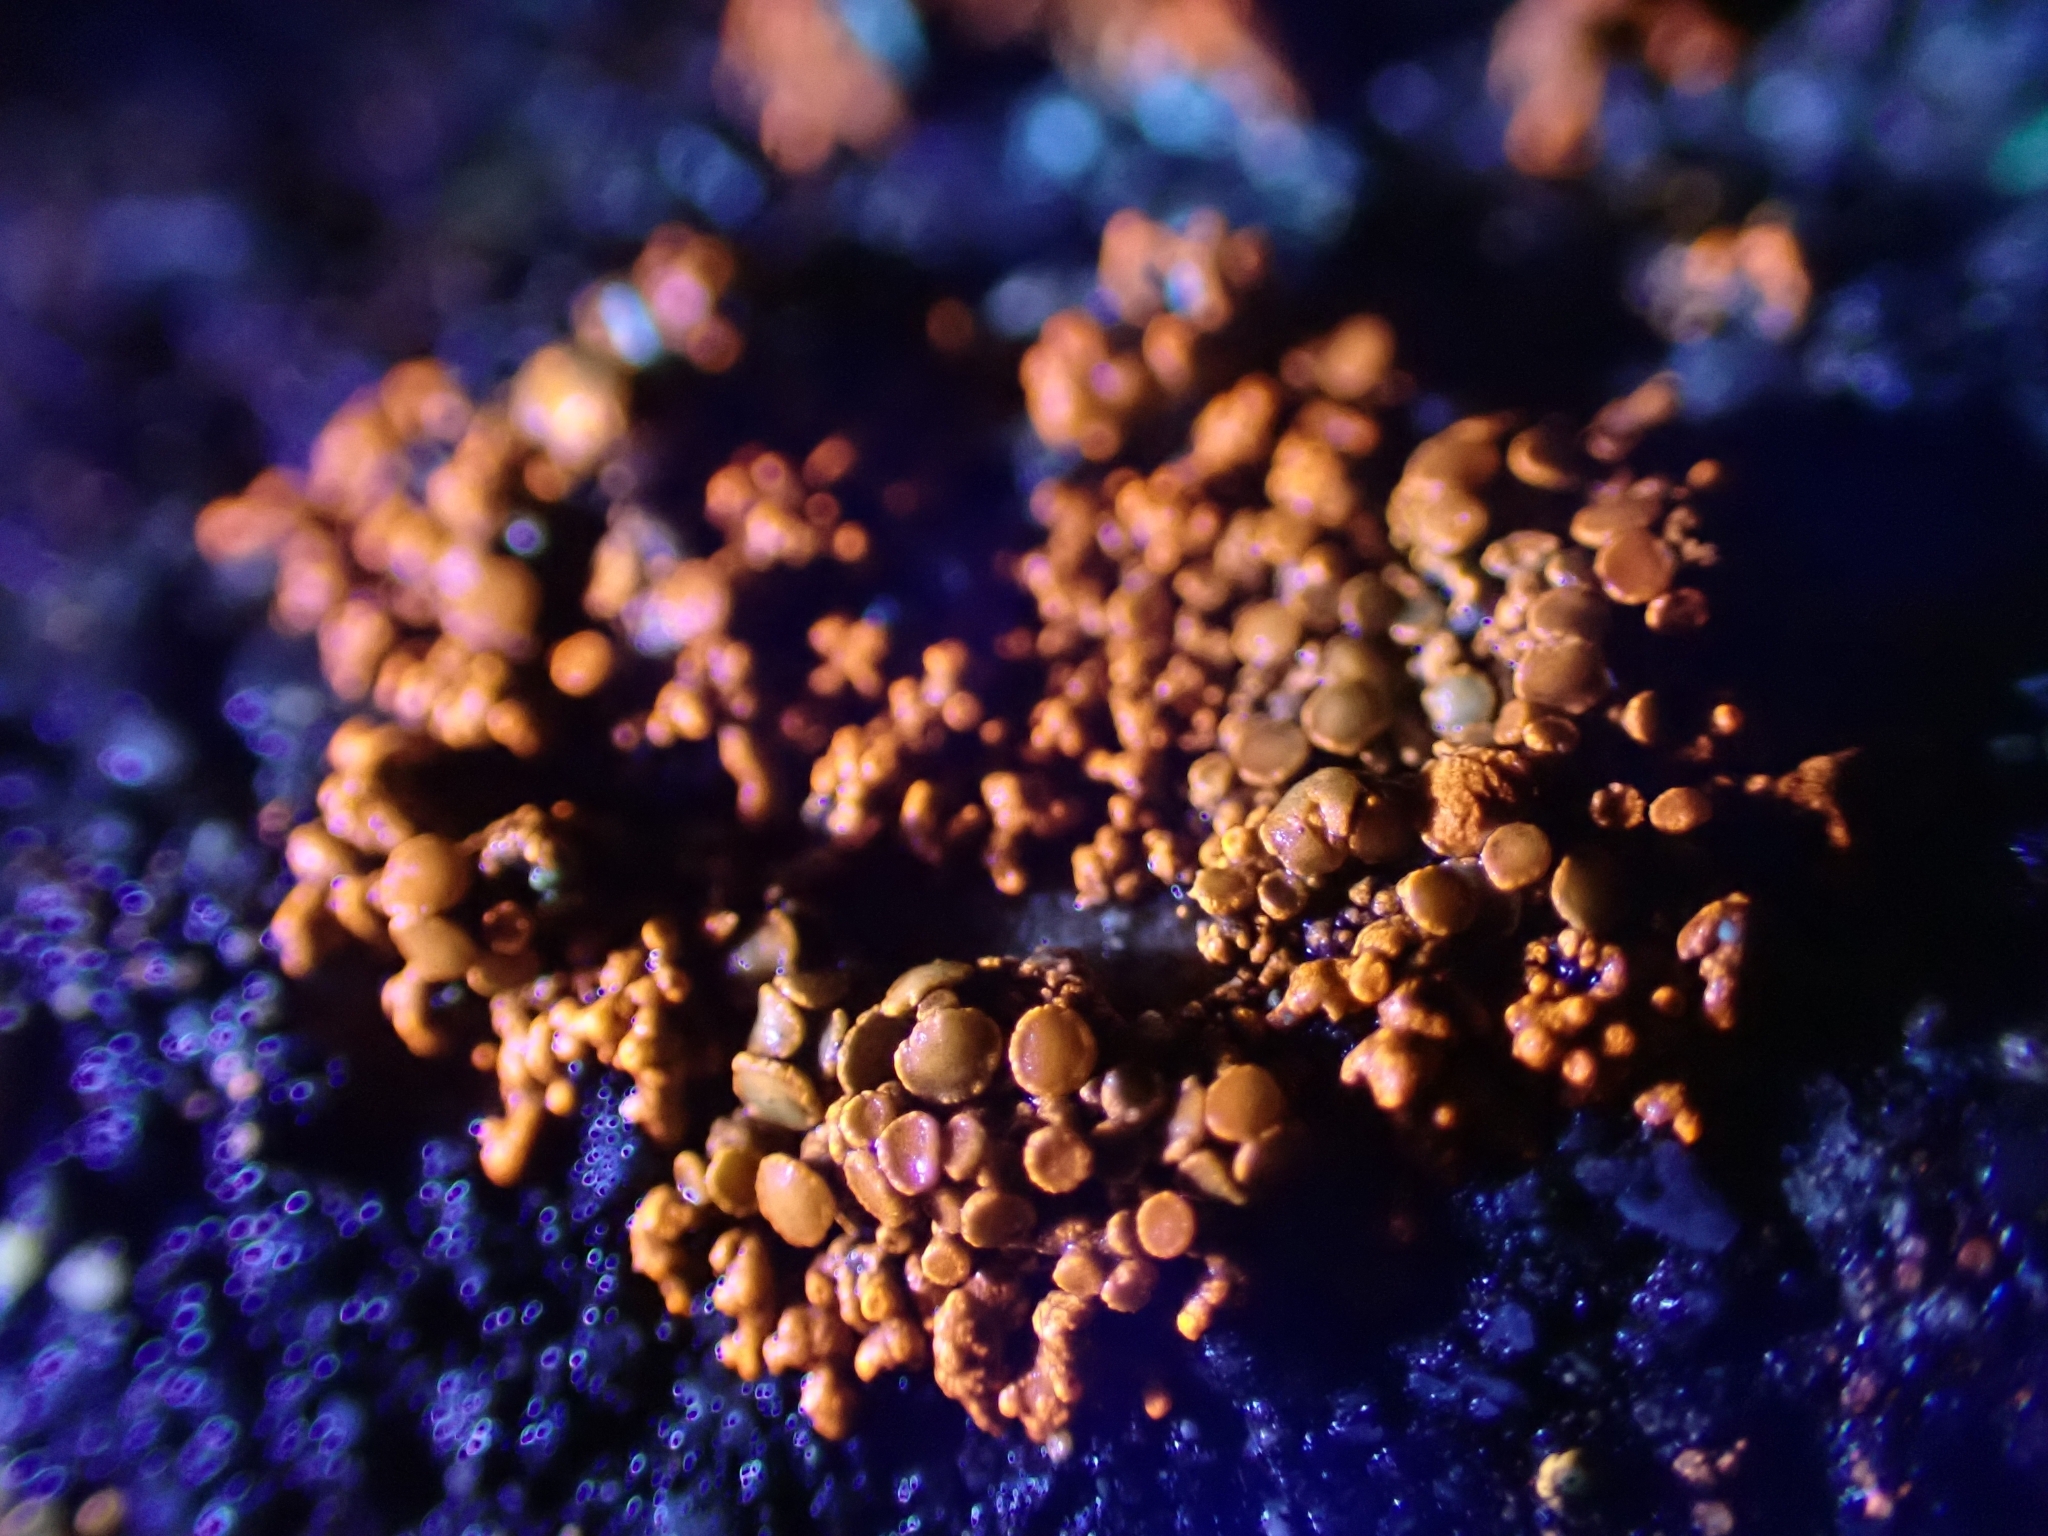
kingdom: Fungi
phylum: Ascomycota
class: Lecanoromycetes
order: Teloschistales
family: Teloschistaceae
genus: Xanthoria
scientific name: Xanthoria elegans
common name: Elegant sunburst lichen
